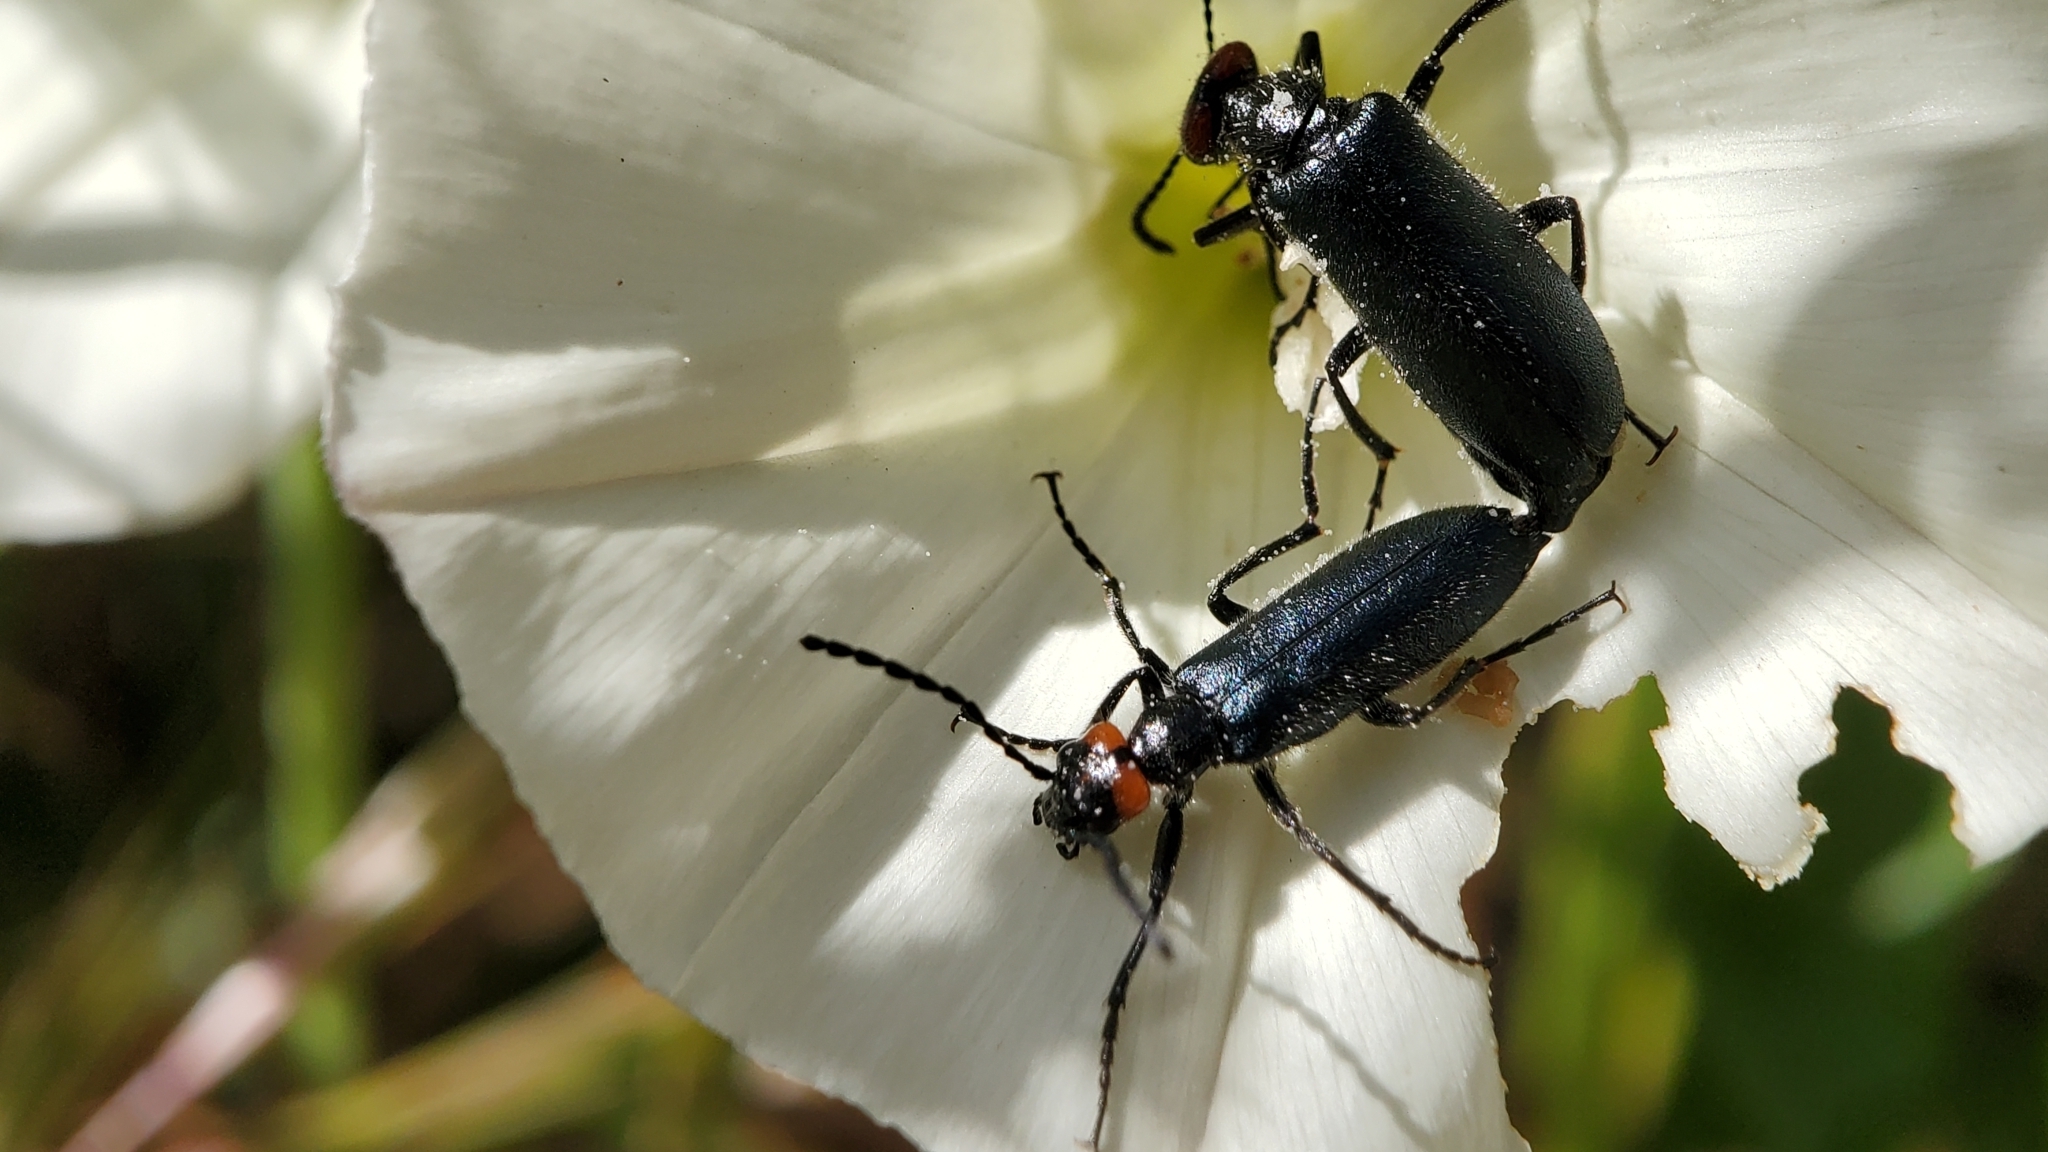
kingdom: Animalia
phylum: Arthropoda
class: Insecta
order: Coleoptera
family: Meloidae
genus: Lytta
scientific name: Lytta auriculata
